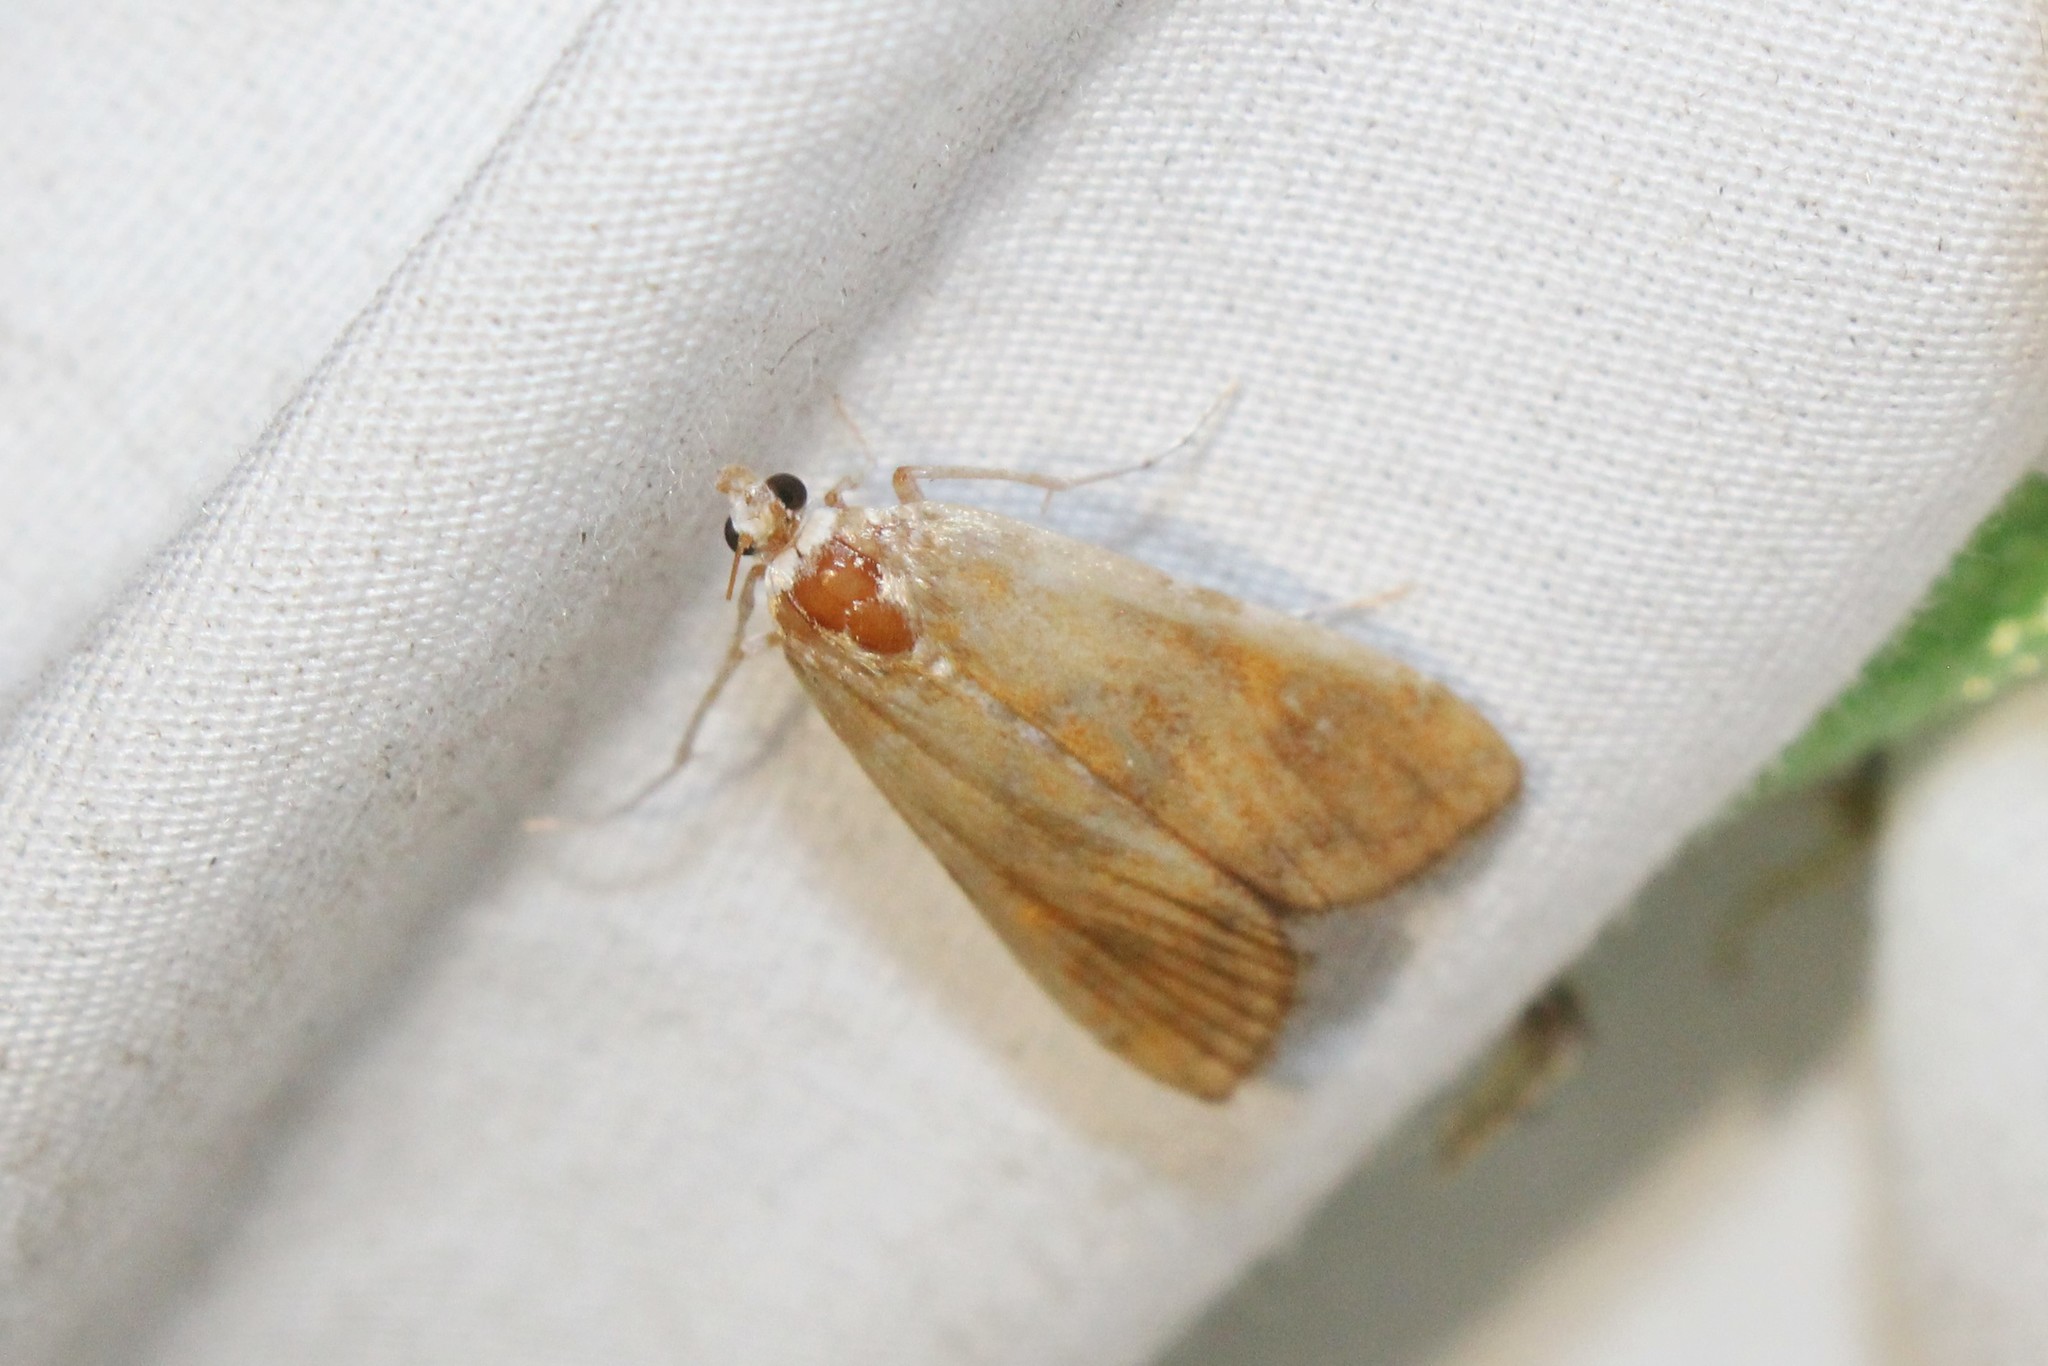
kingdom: Animalia
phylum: Arthropoda
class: Insecta
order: Lepidoptera
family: Crambidae
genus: Elophila
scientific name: Elophila gyralis
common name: Waterlily borer moth
